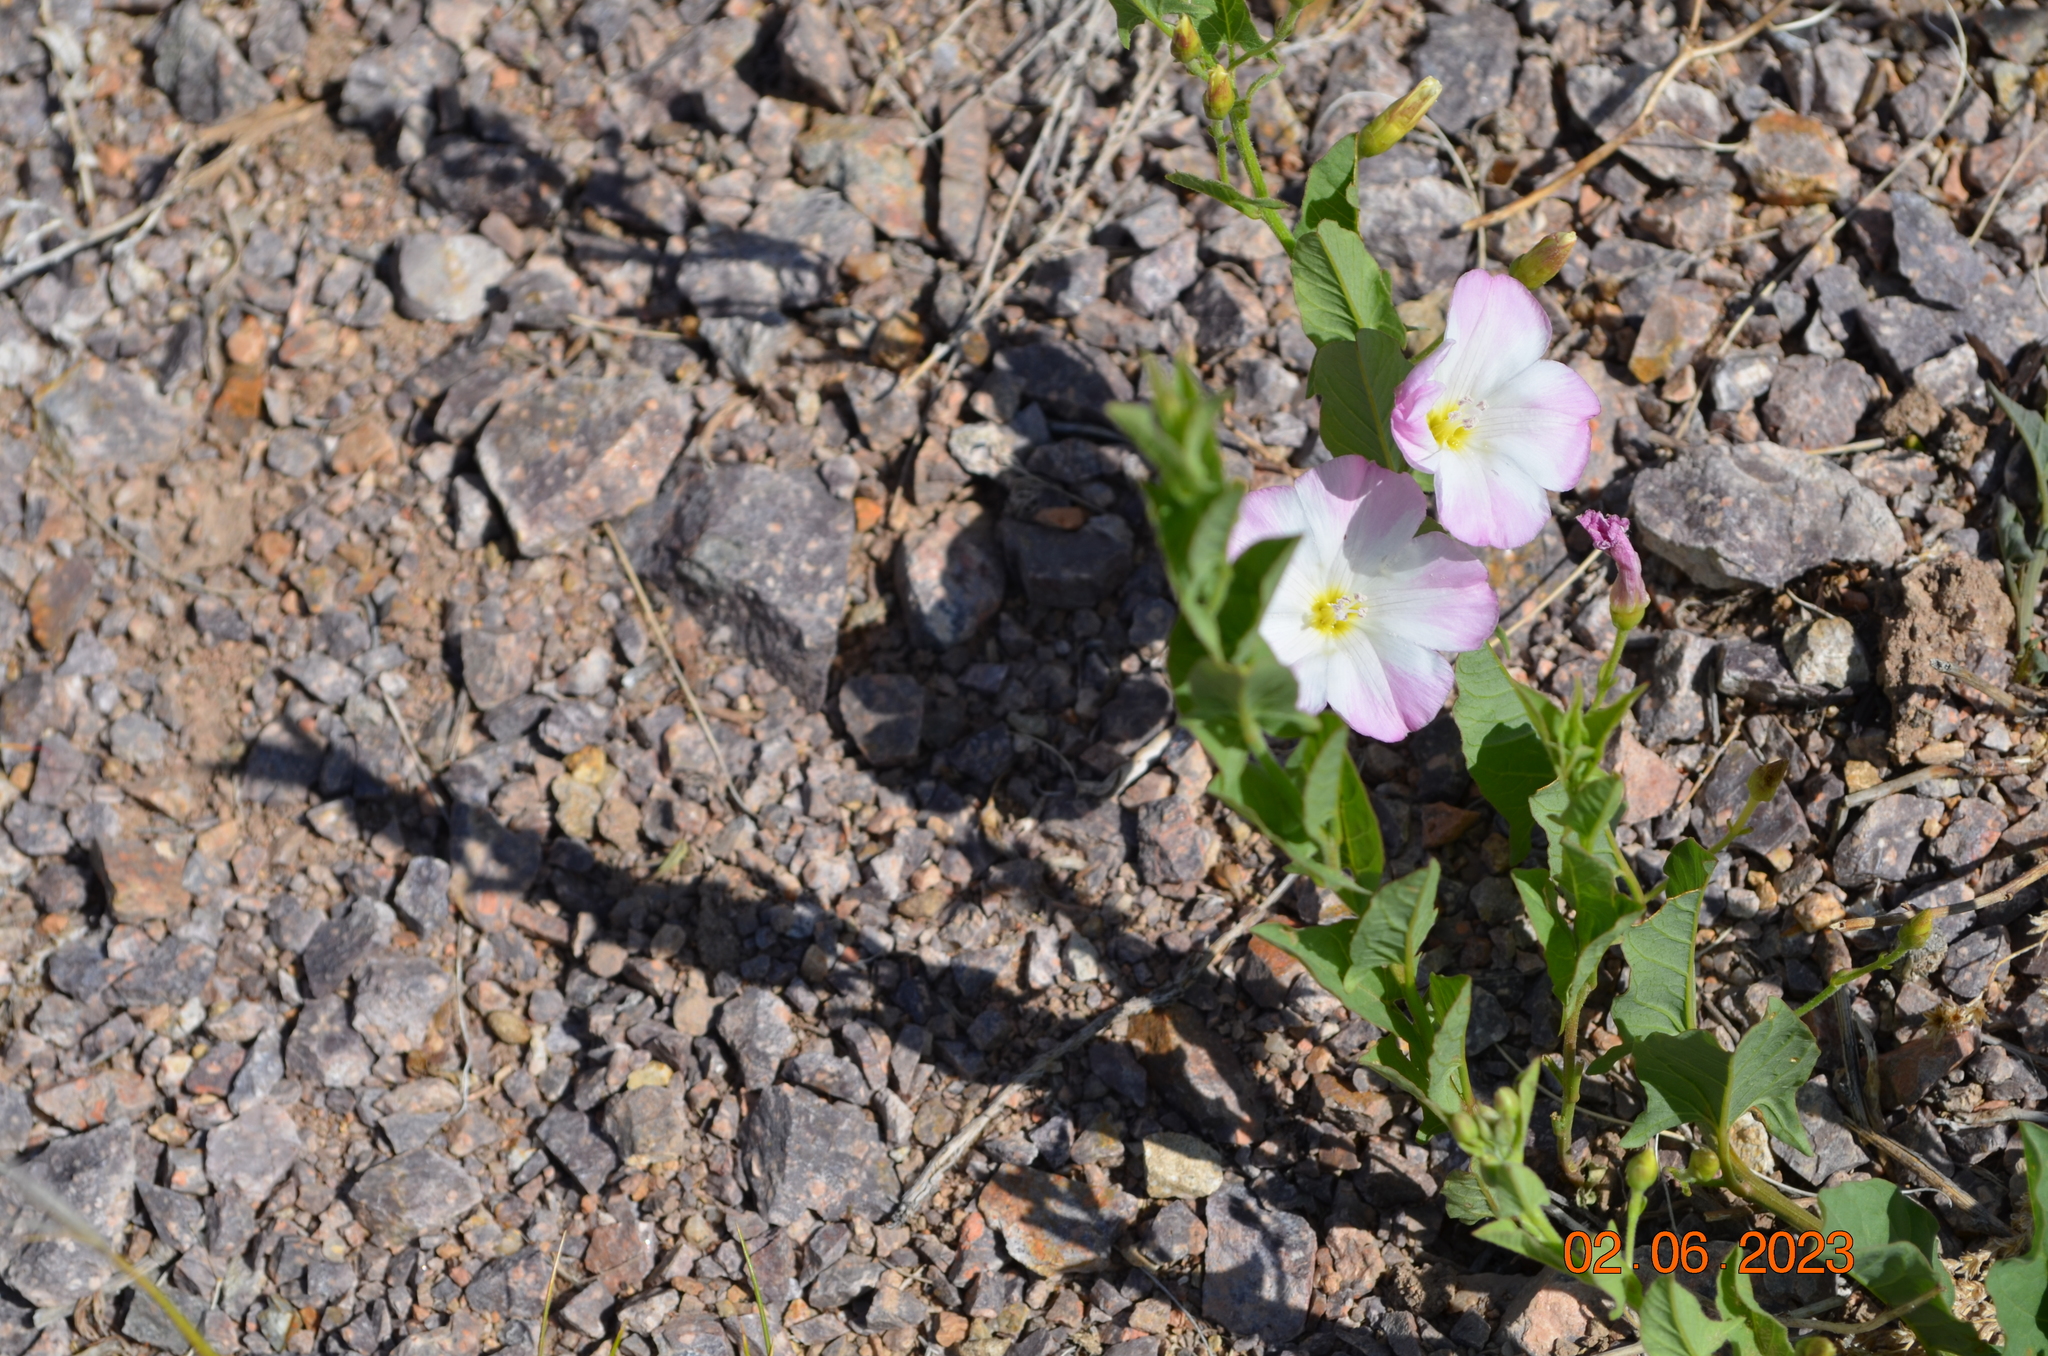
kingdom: Plantae
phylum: Tracheophyta
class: Magnoliopsida
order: Solanales
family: Convolvulaceae
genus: Convolvulus
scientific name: Convolvulus arvensis
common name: Field bindweed
